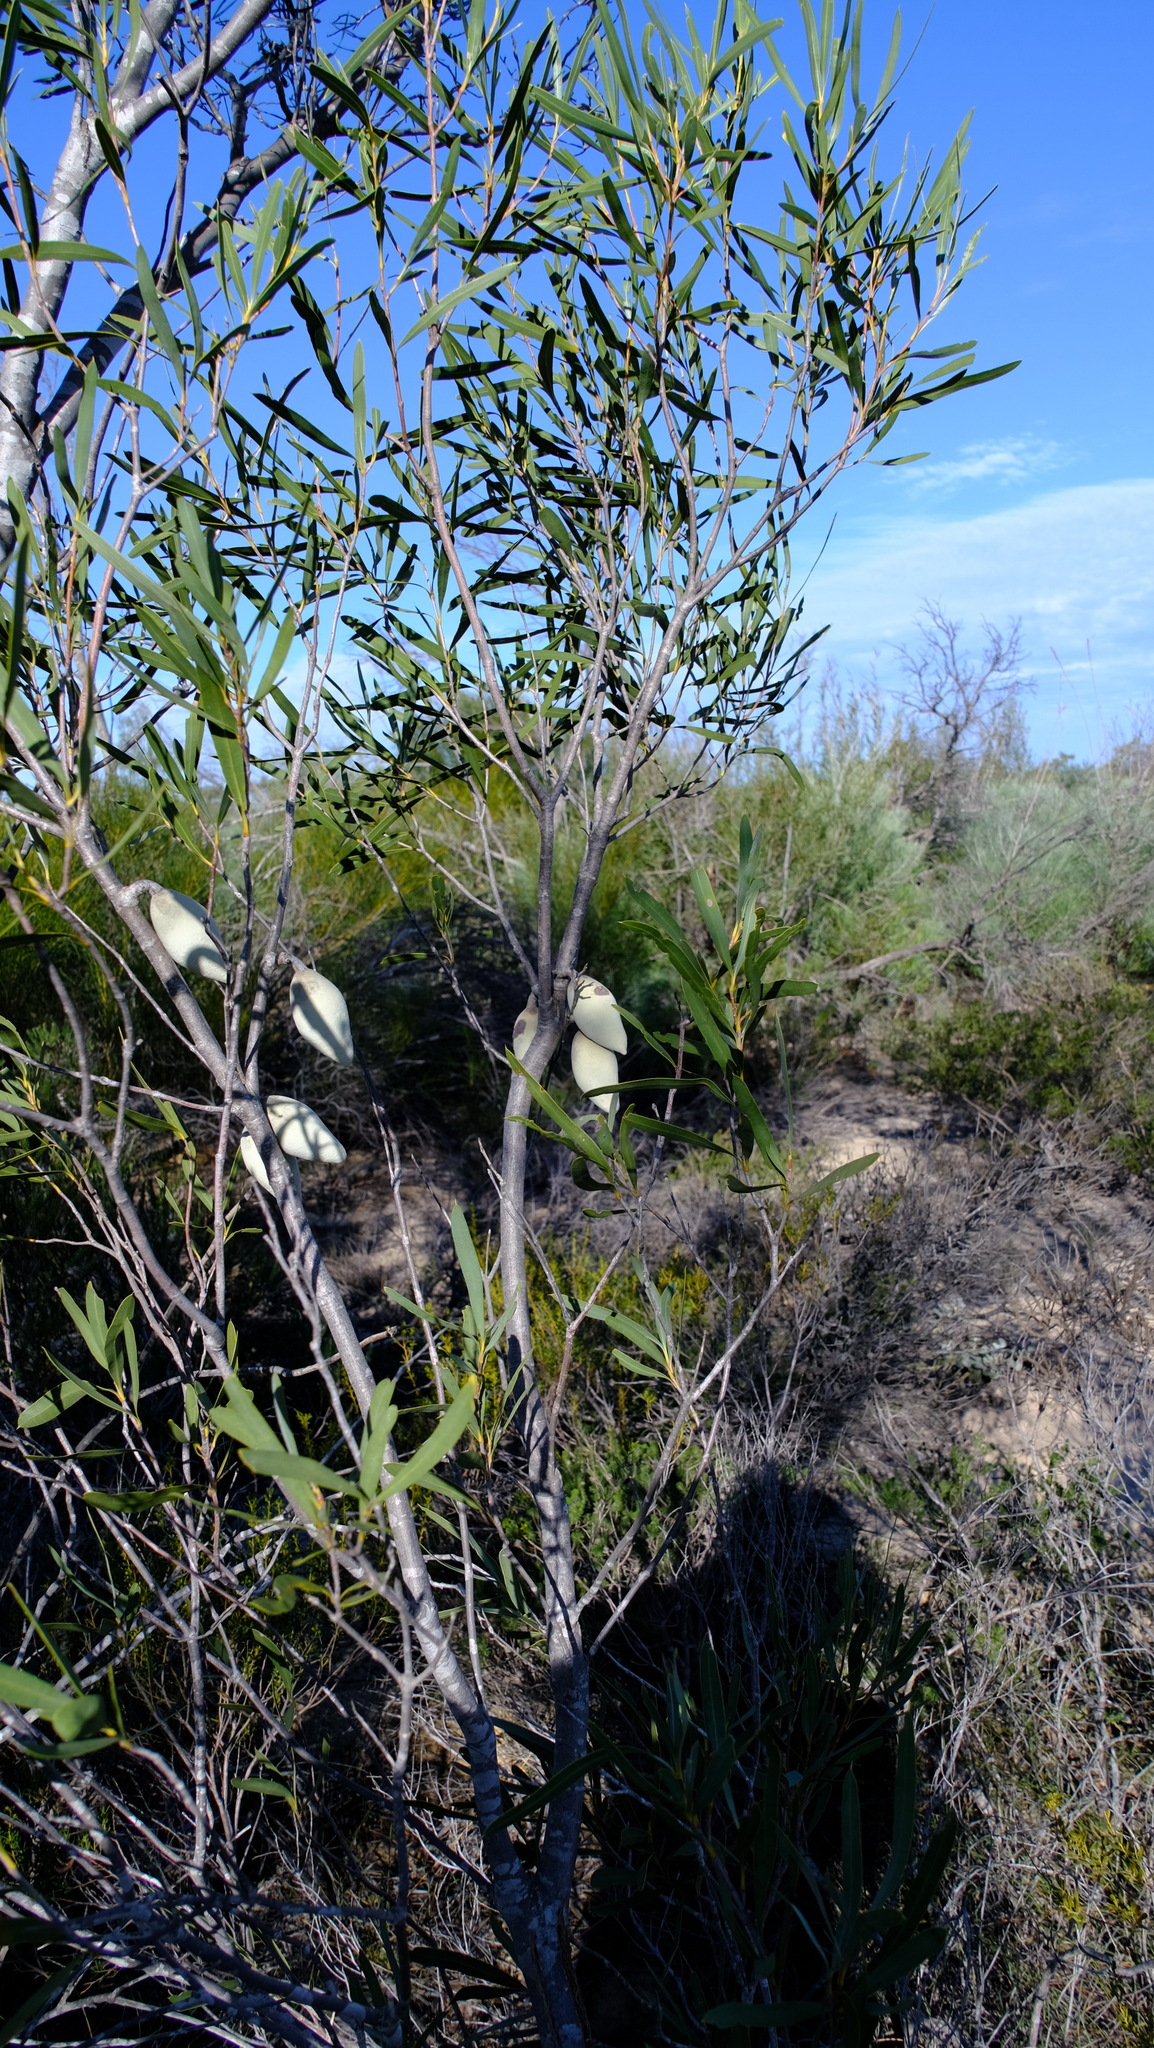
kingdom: Plantae
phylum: Tracheophyta
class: Magnoliopsida
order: Proteales
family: Proteaceae
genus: Xylomelum
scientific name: Xylomelum angustifolium
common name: Sandplain woody-pear
